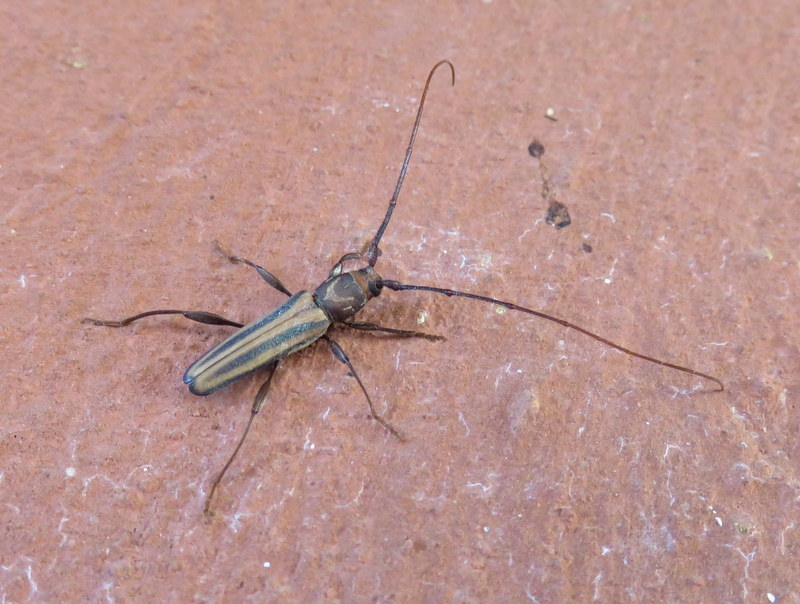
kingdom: Animalia
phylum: Arthropoda
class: Insecta
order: Coleoptera
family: Cerambycidae
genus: Xystrocera
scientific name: Xystrocera dispar
